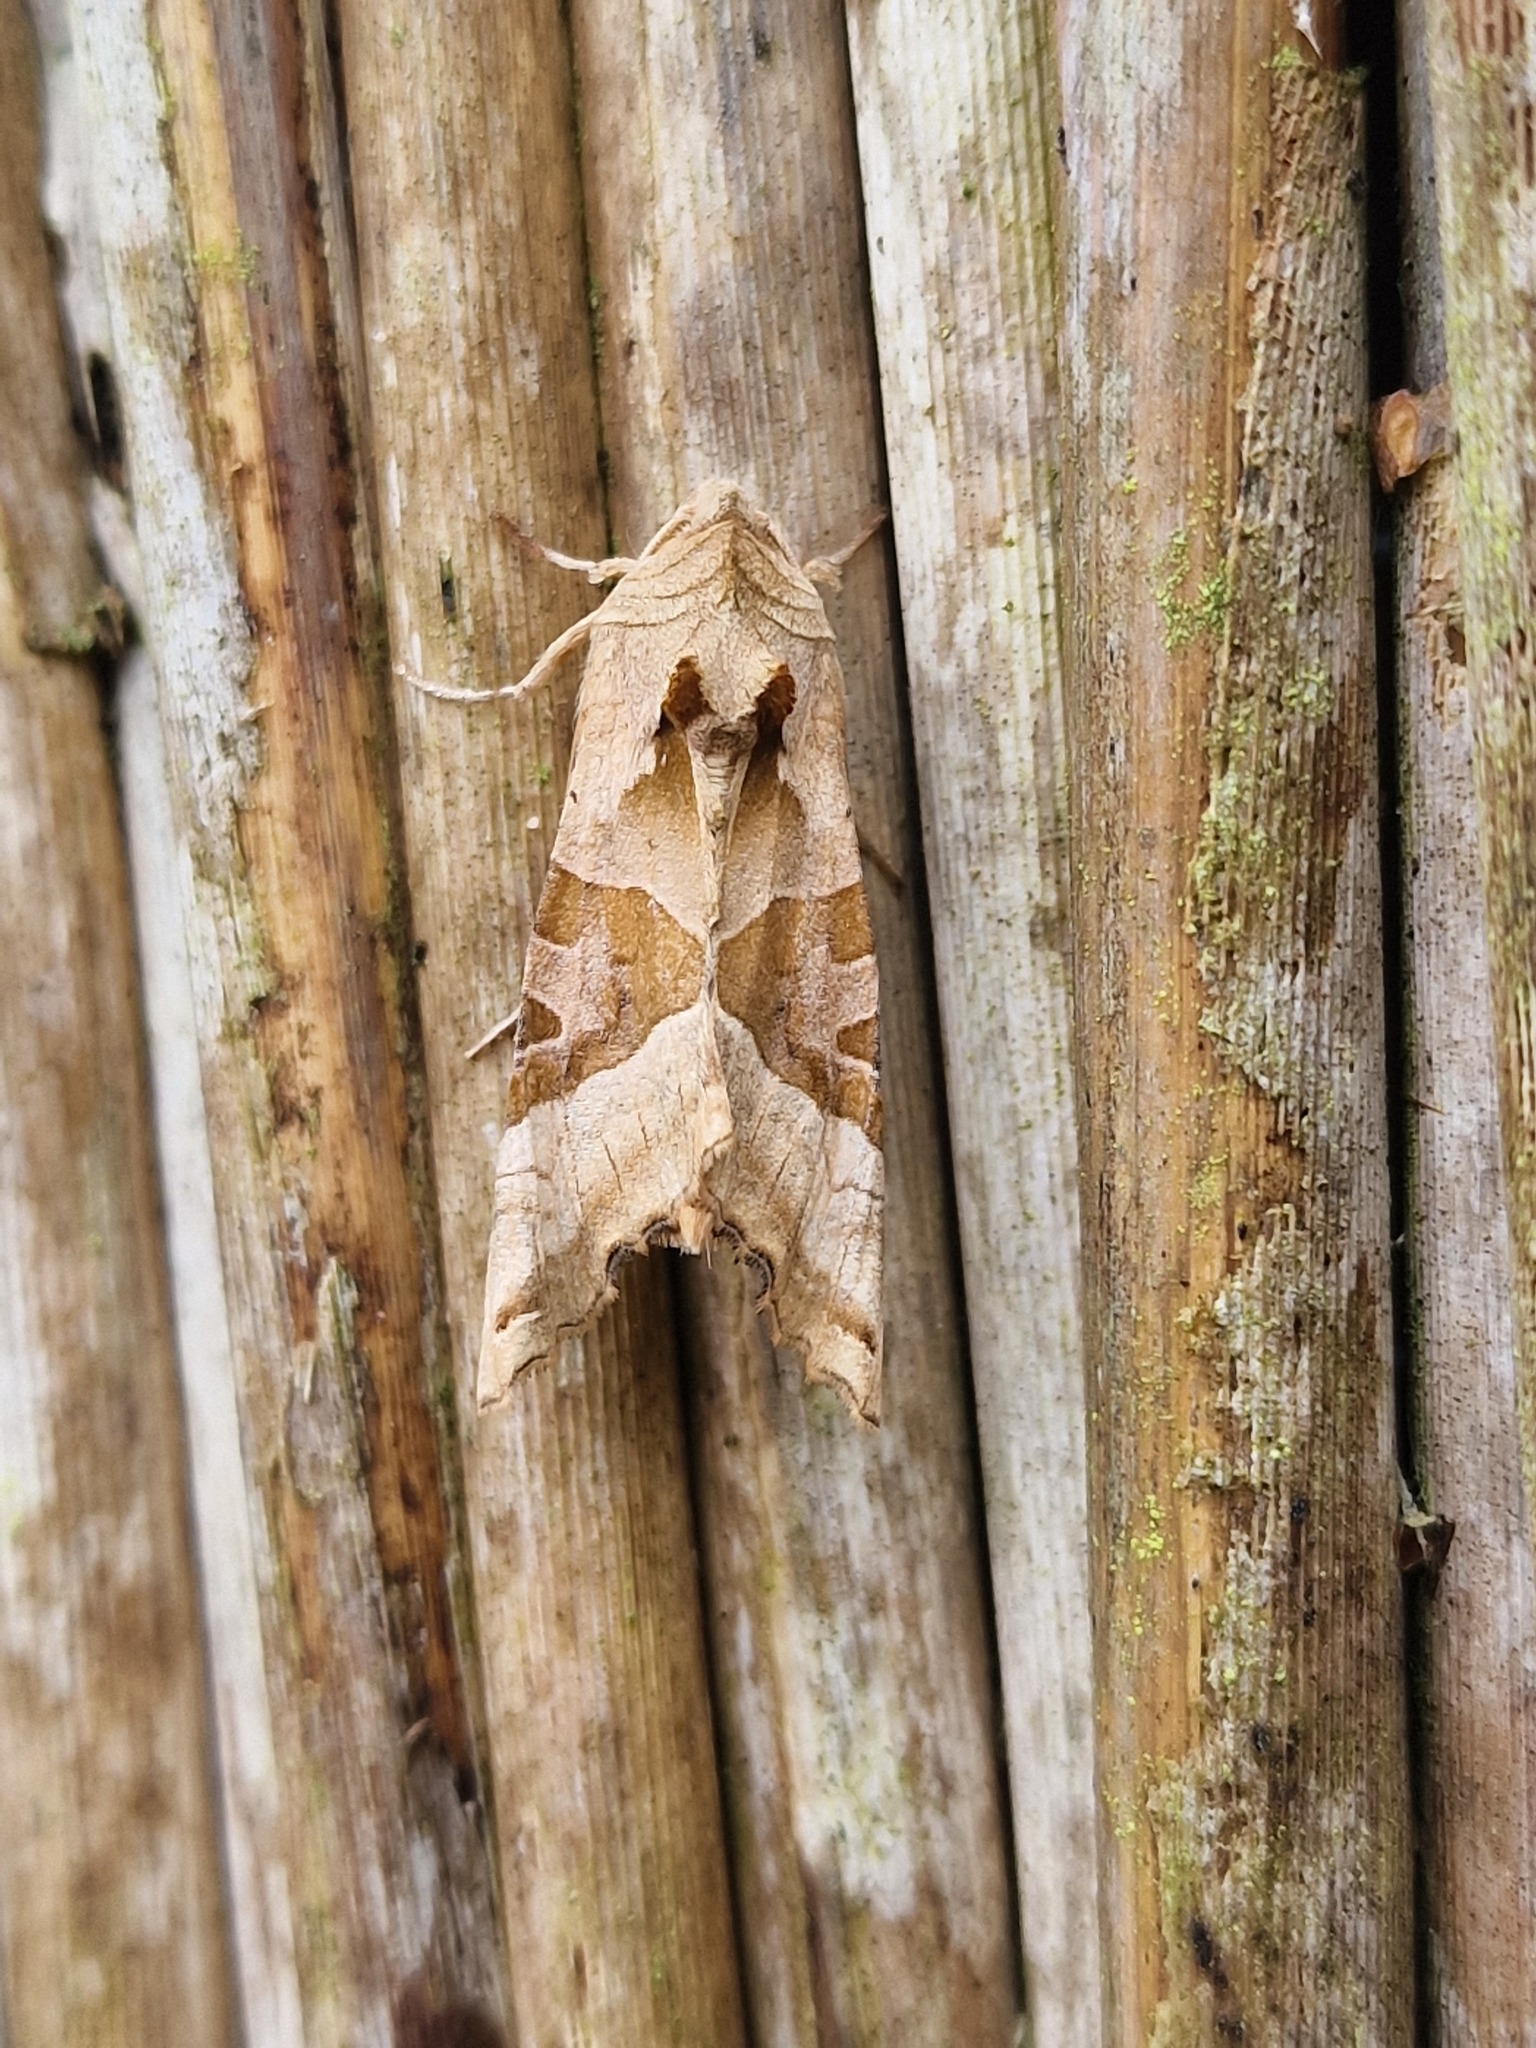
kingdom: Animalia
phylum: Arthropoda
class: Insecta
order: Lepidoptera
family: Noctuidae
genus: Phlogophora
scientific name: Phlogophora meticulosa
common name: Angle shades
